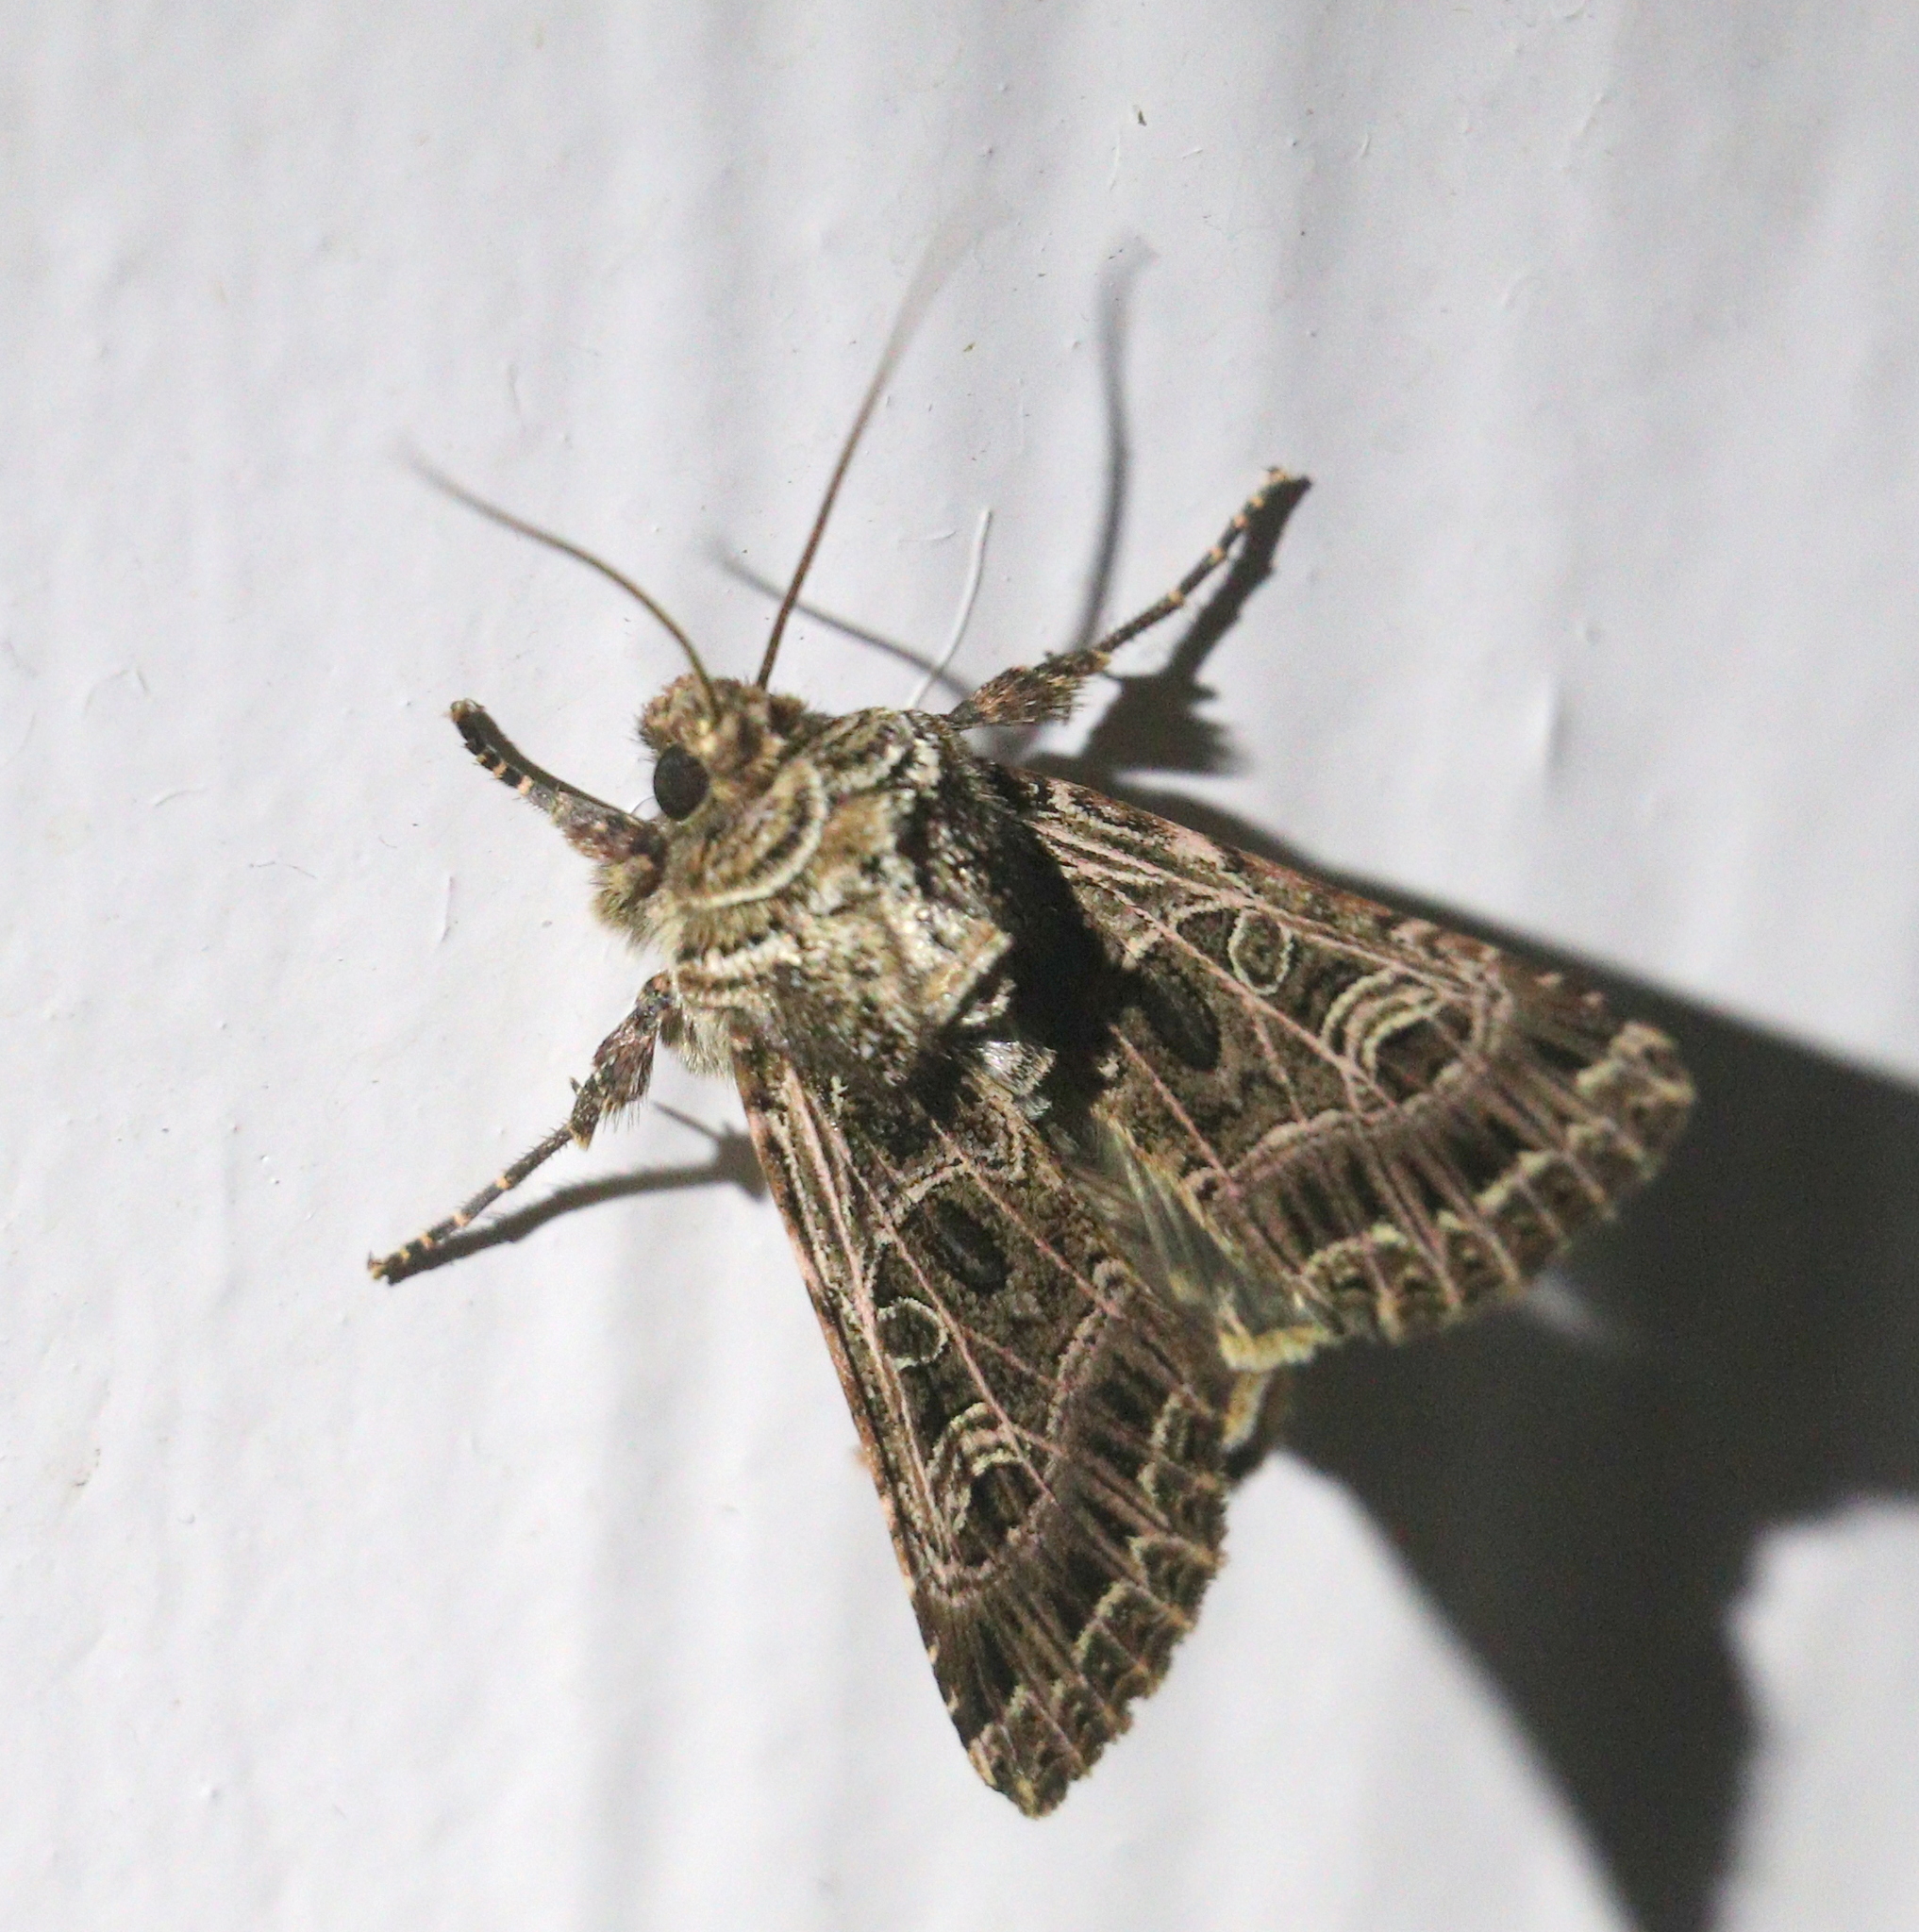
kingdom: Animalia
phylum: Arthropoda
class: Insecta
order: Lepidoptera
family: Noctuidae
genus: Sideridis
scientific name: Sideridis reticulata
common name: Bordered gothic
